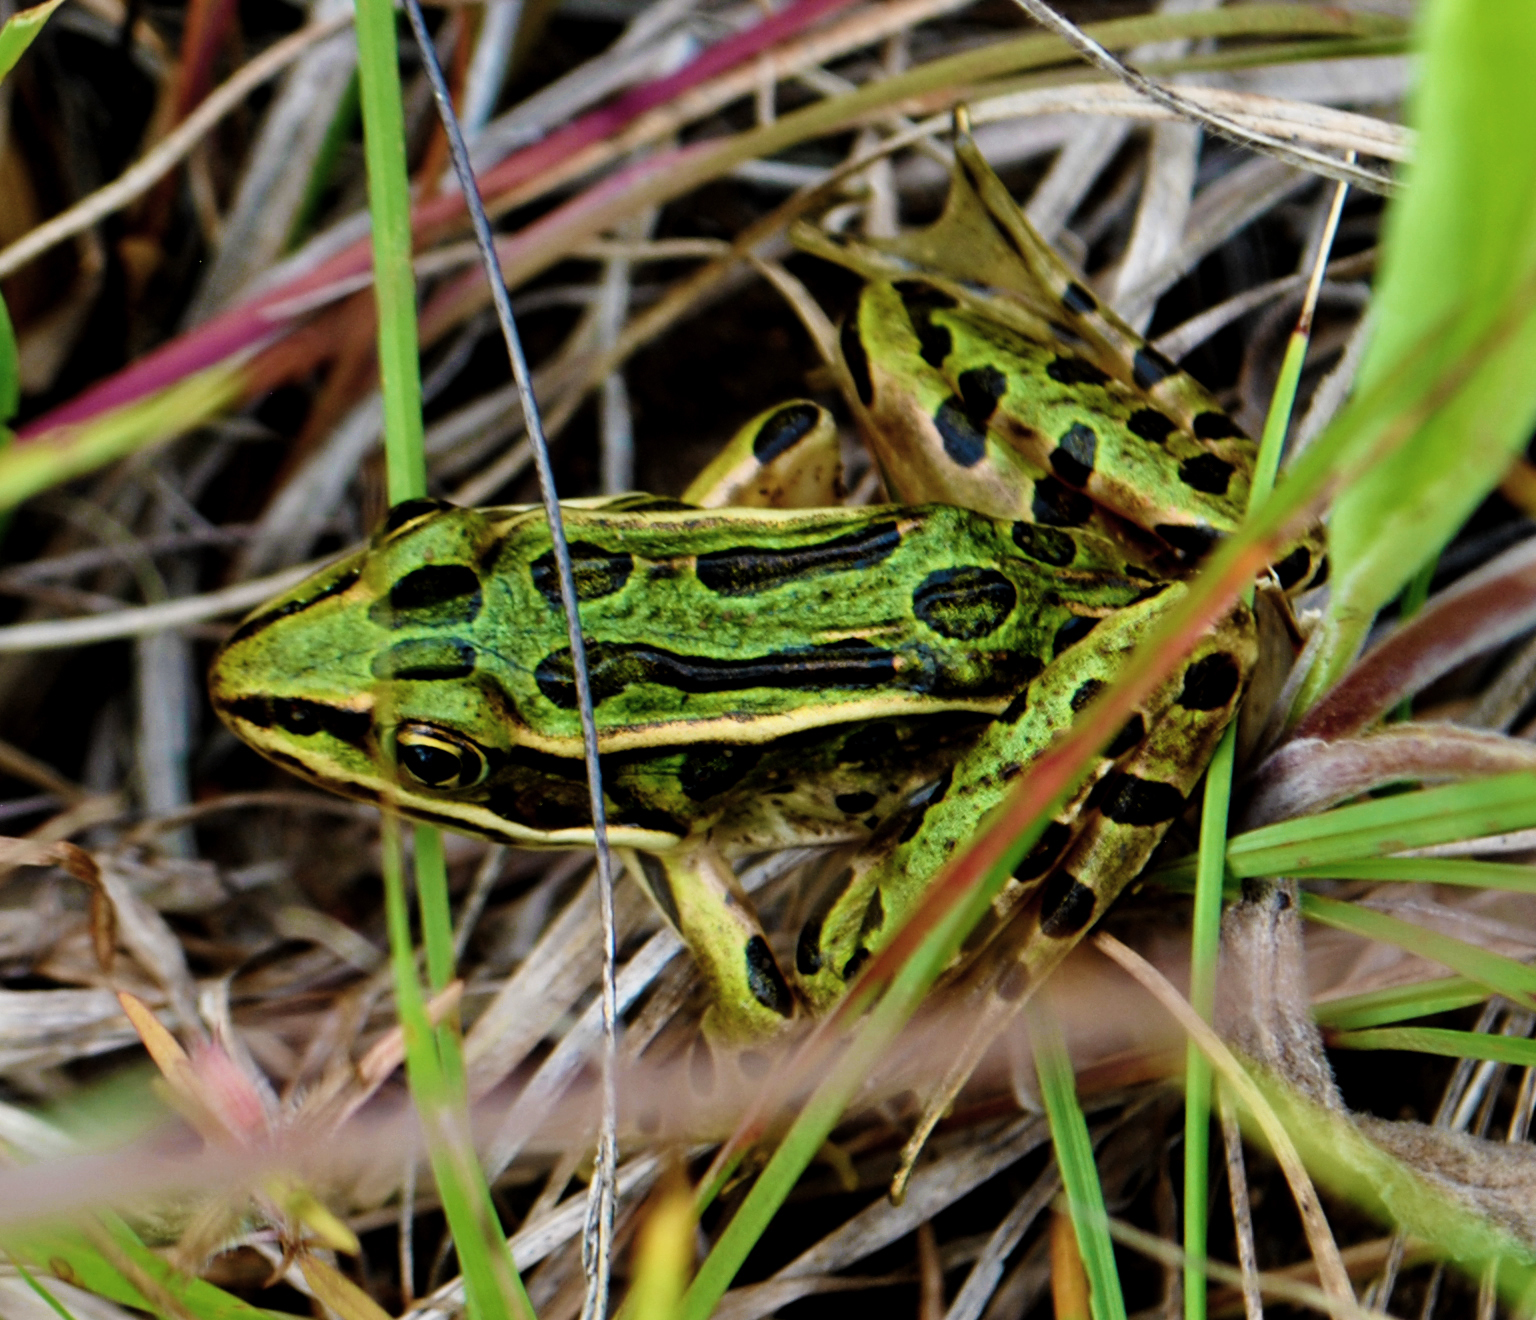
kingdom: Animalia
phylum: Chordata
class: Amphibia
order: Anura
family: Ranidae
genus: Lithobates
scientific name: Lithobates pipiens
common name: Northern leopard frog
